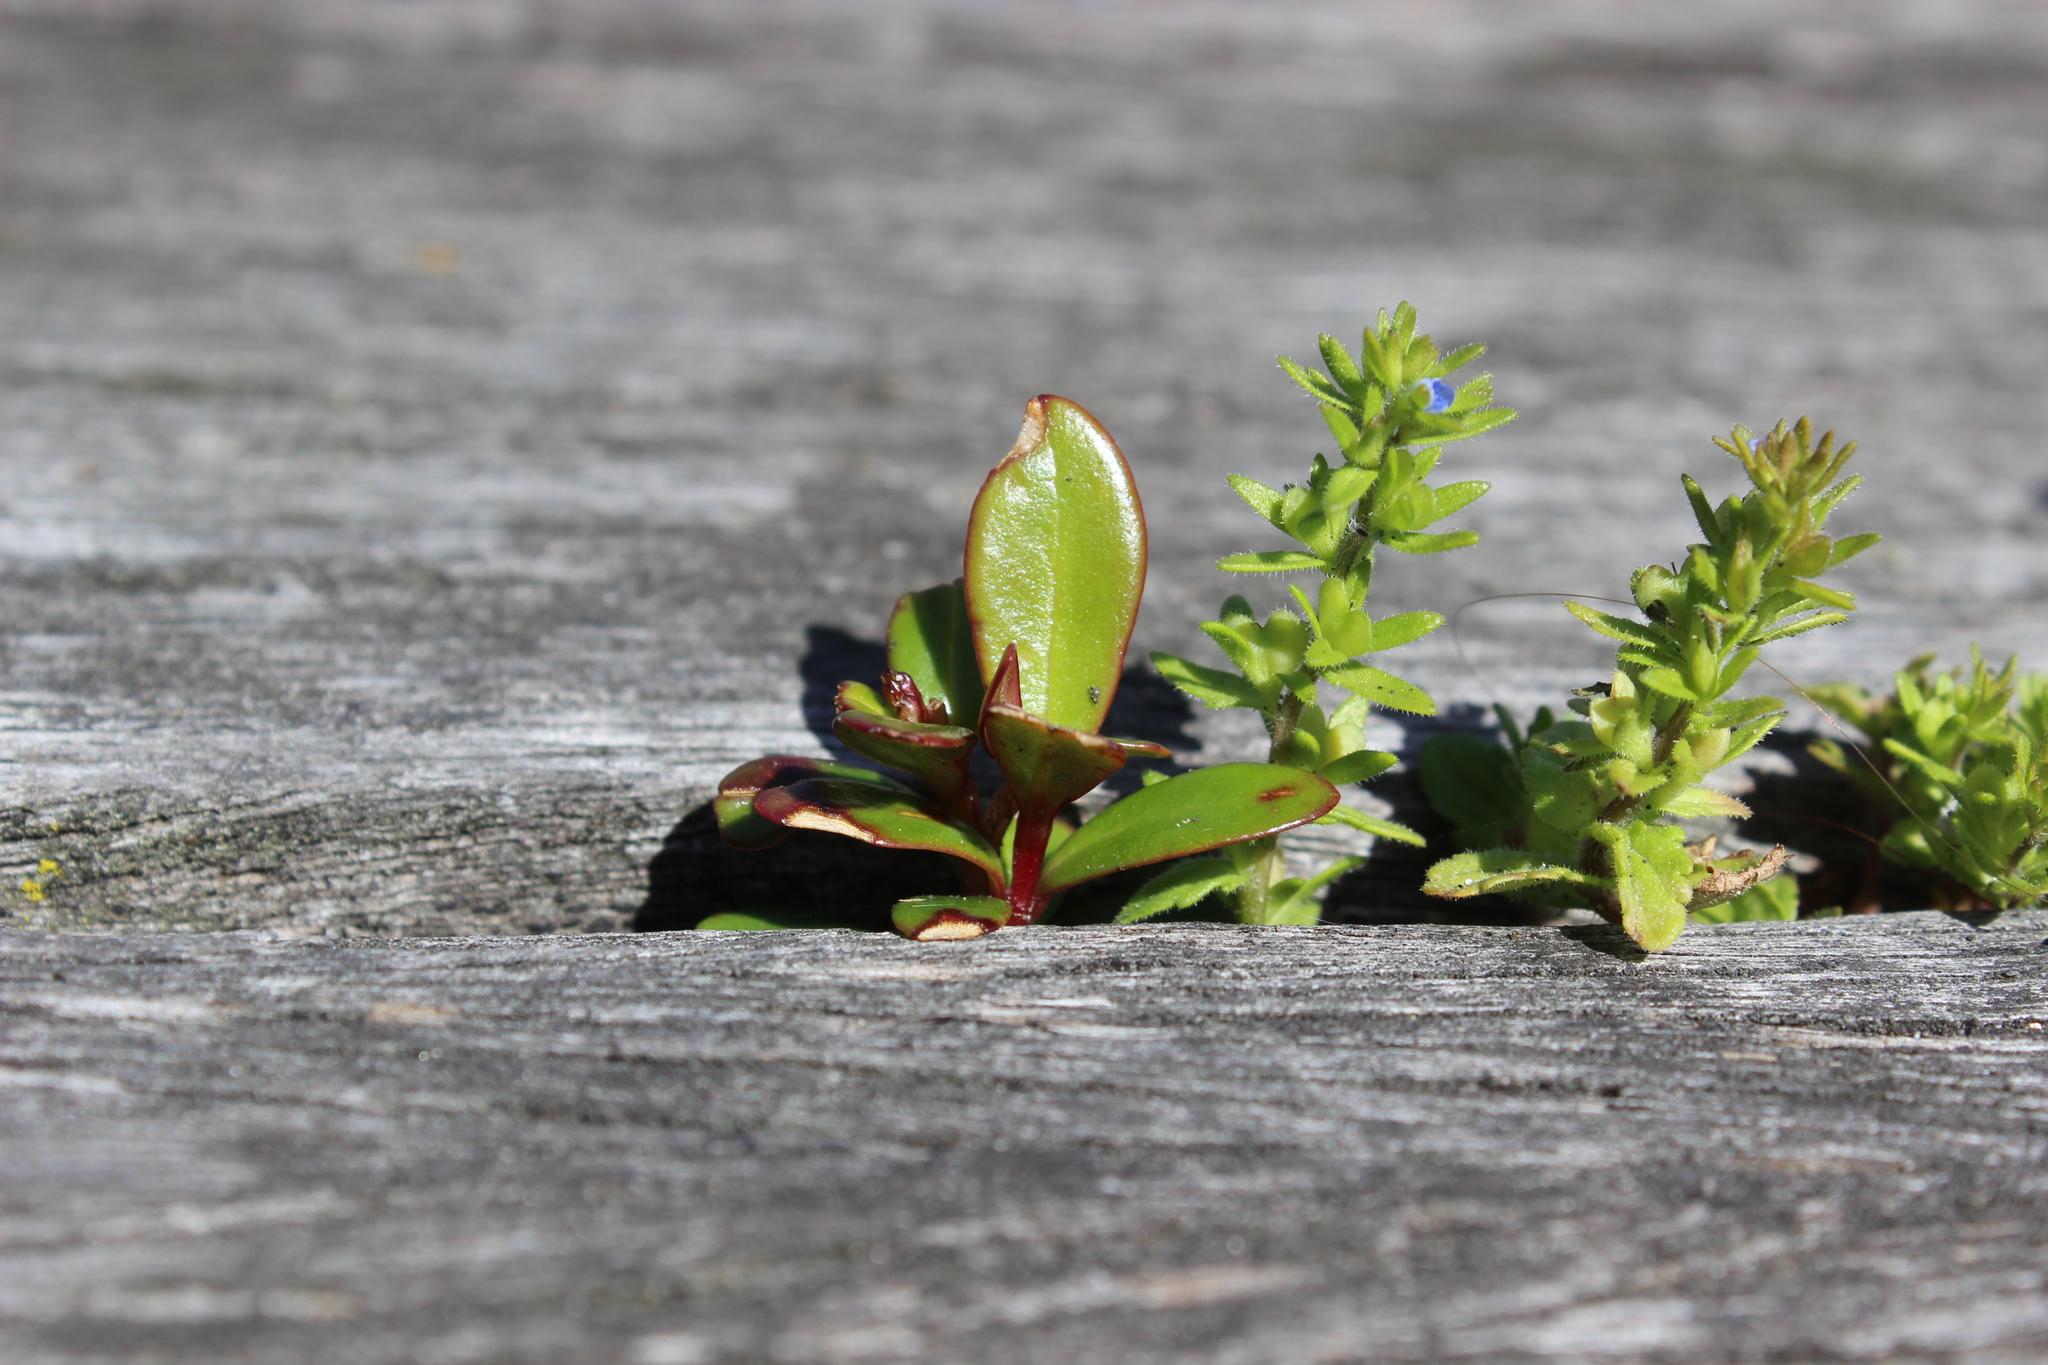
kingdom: Plantae
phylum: Tracheophyta
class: Magnoliopsida
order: Myrtales
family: Myrtaceae
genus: Metrosideros
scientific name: Metrosideros excelsa
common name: New zealand christmastree
